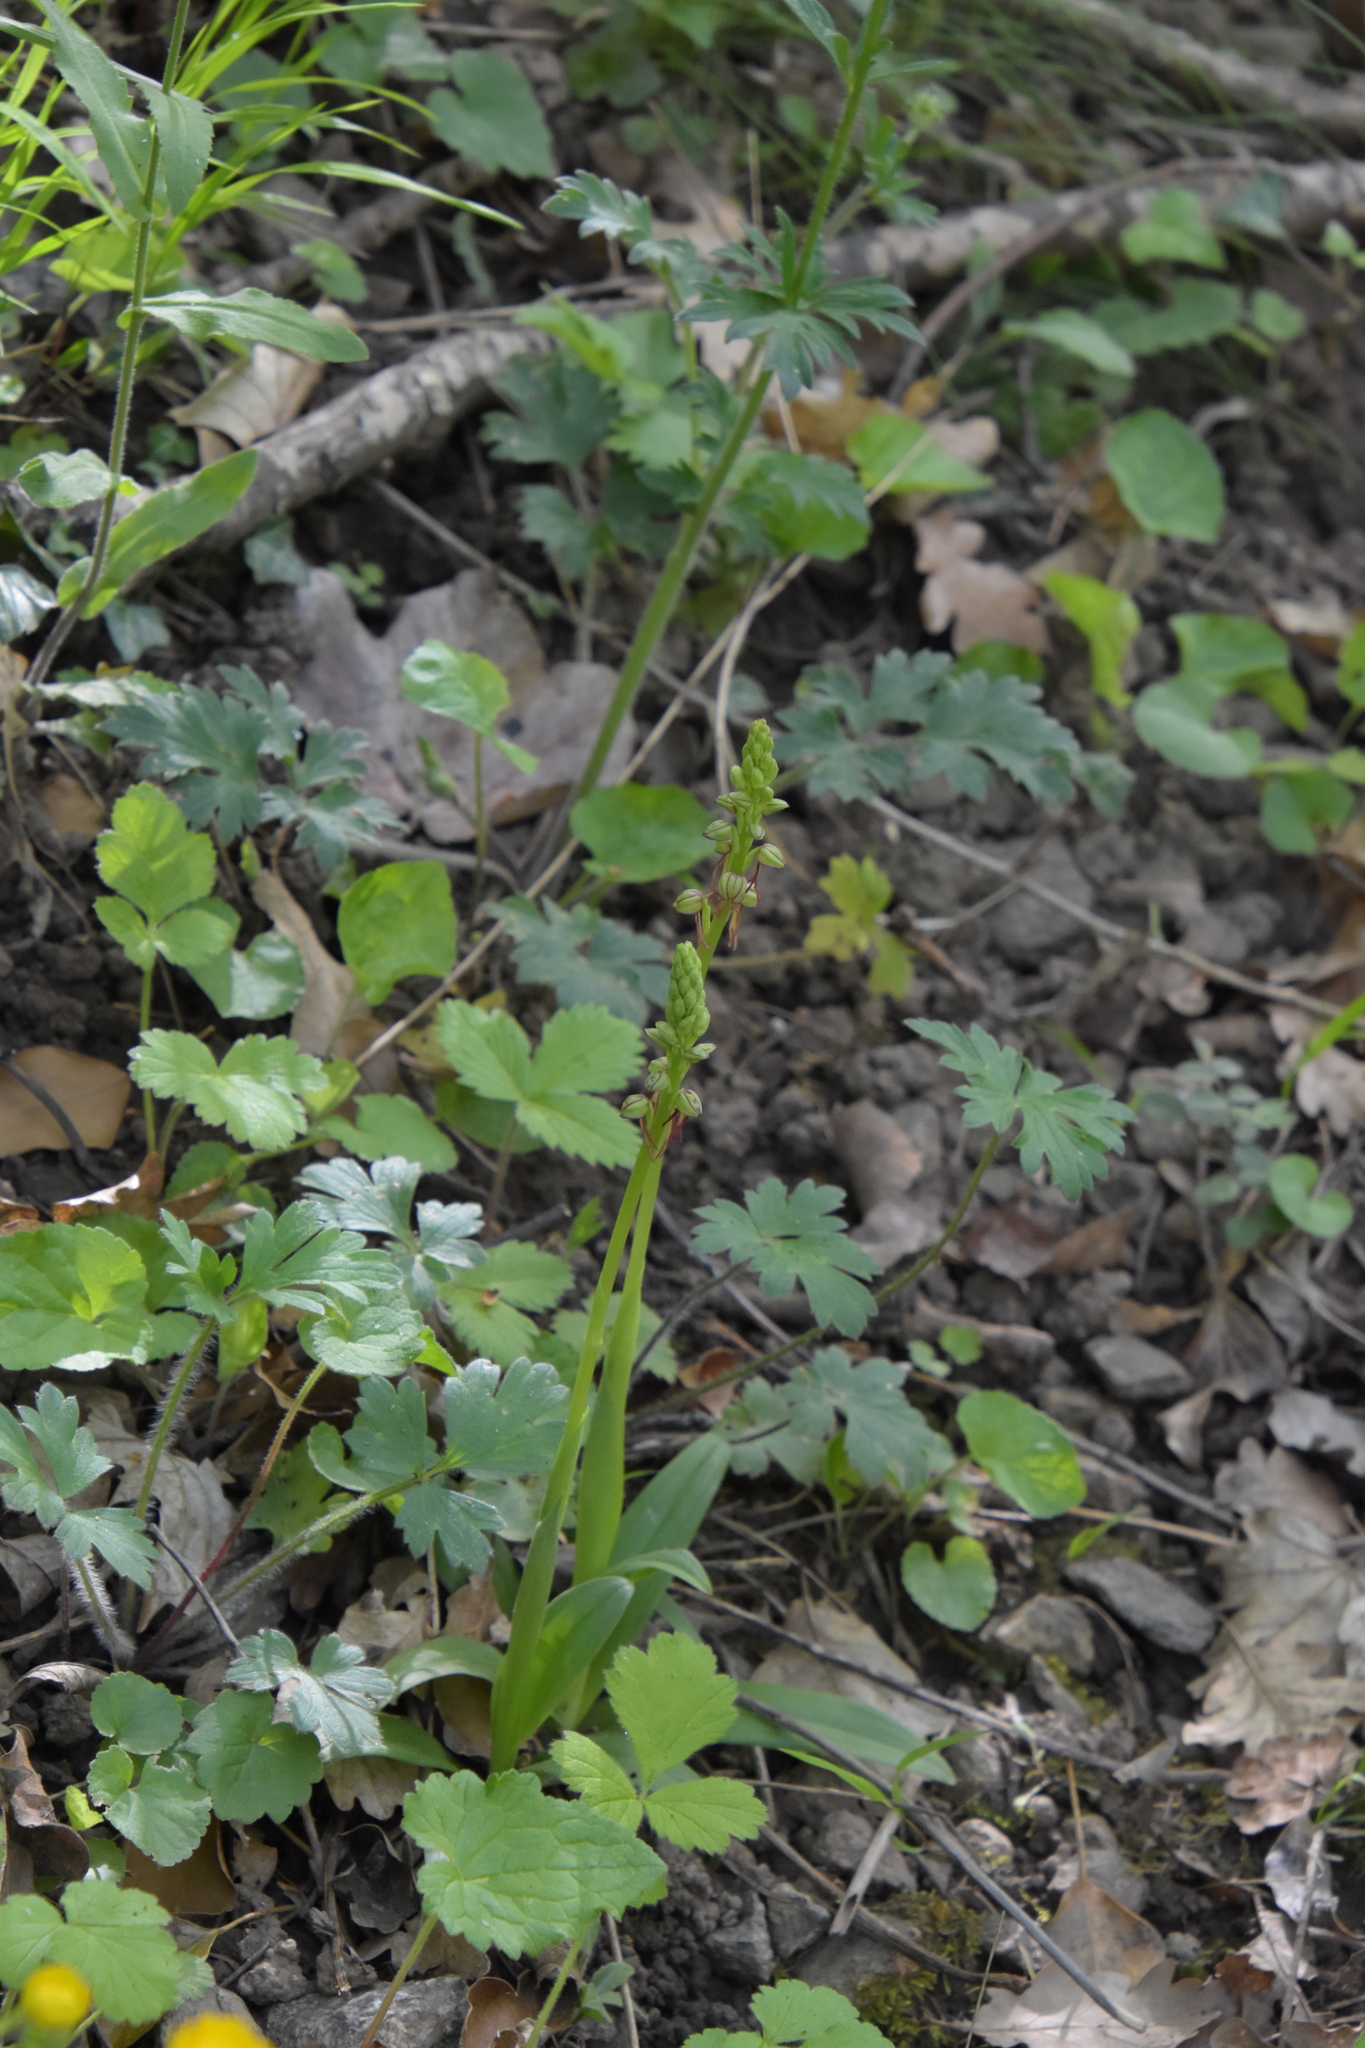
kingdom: Plantae
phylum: Tracheophyta
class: Liliopsida
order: Asparagales
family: Orchidaceae
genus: Orchis
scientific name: Orchis anthropophora
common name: Man orchid
